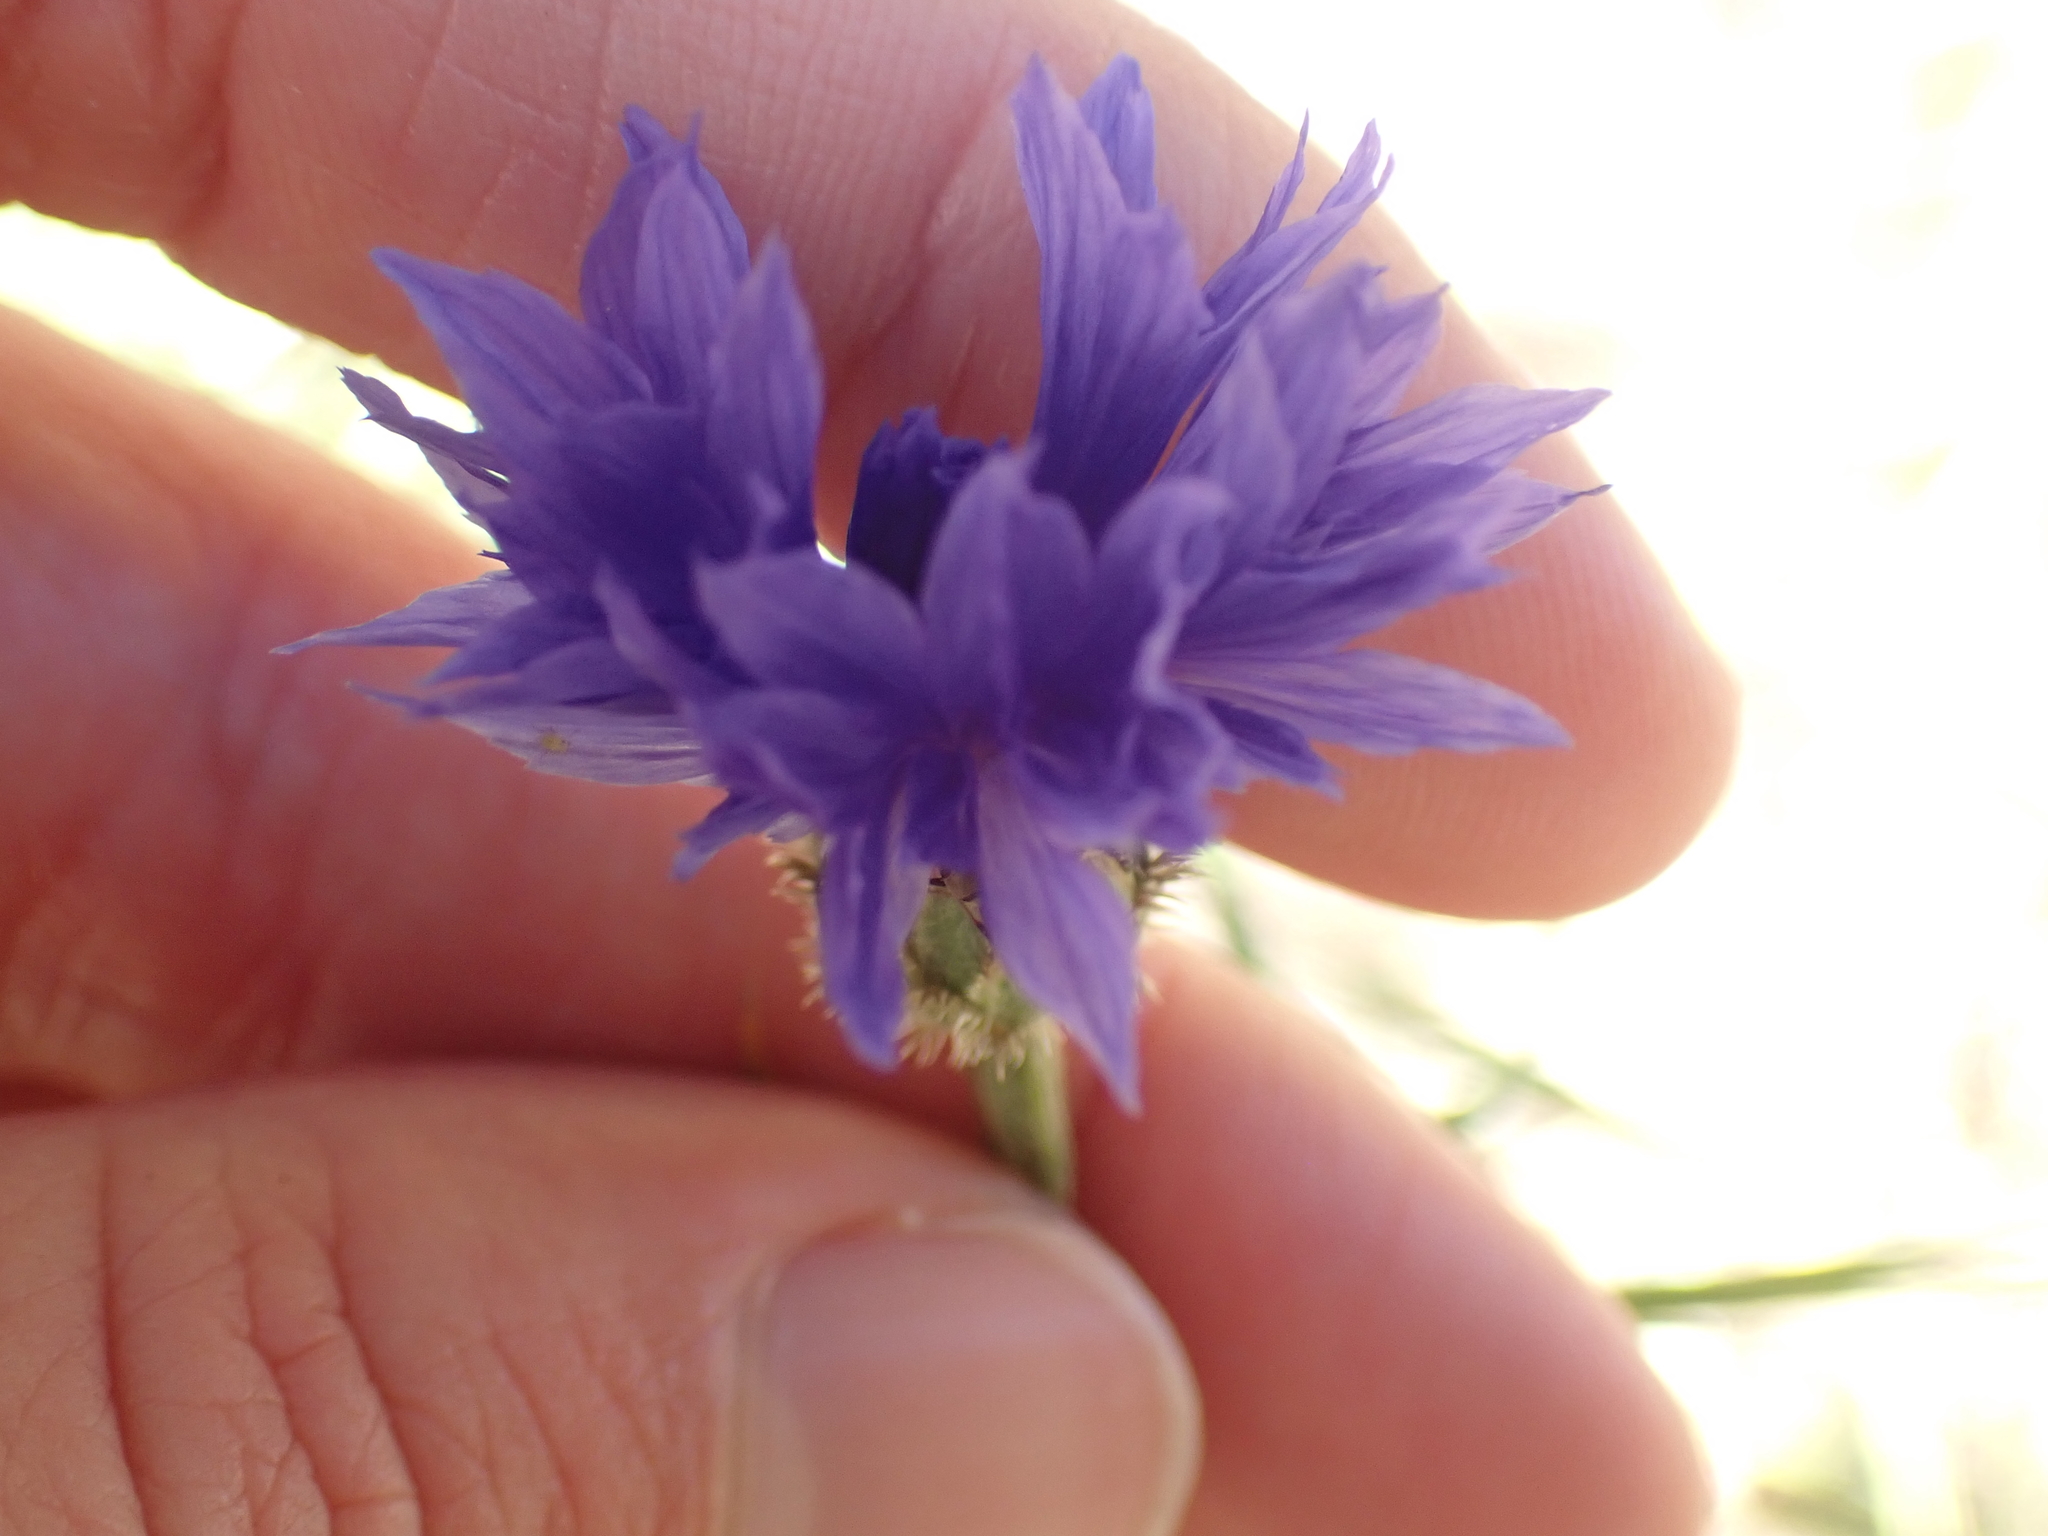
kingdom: Plantae
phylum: Tracheophyta
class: Magnoliopsida
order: Asterales
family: Asteraceae
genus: Centaurea
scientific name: Centaurea cyanus
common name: Cornflower
